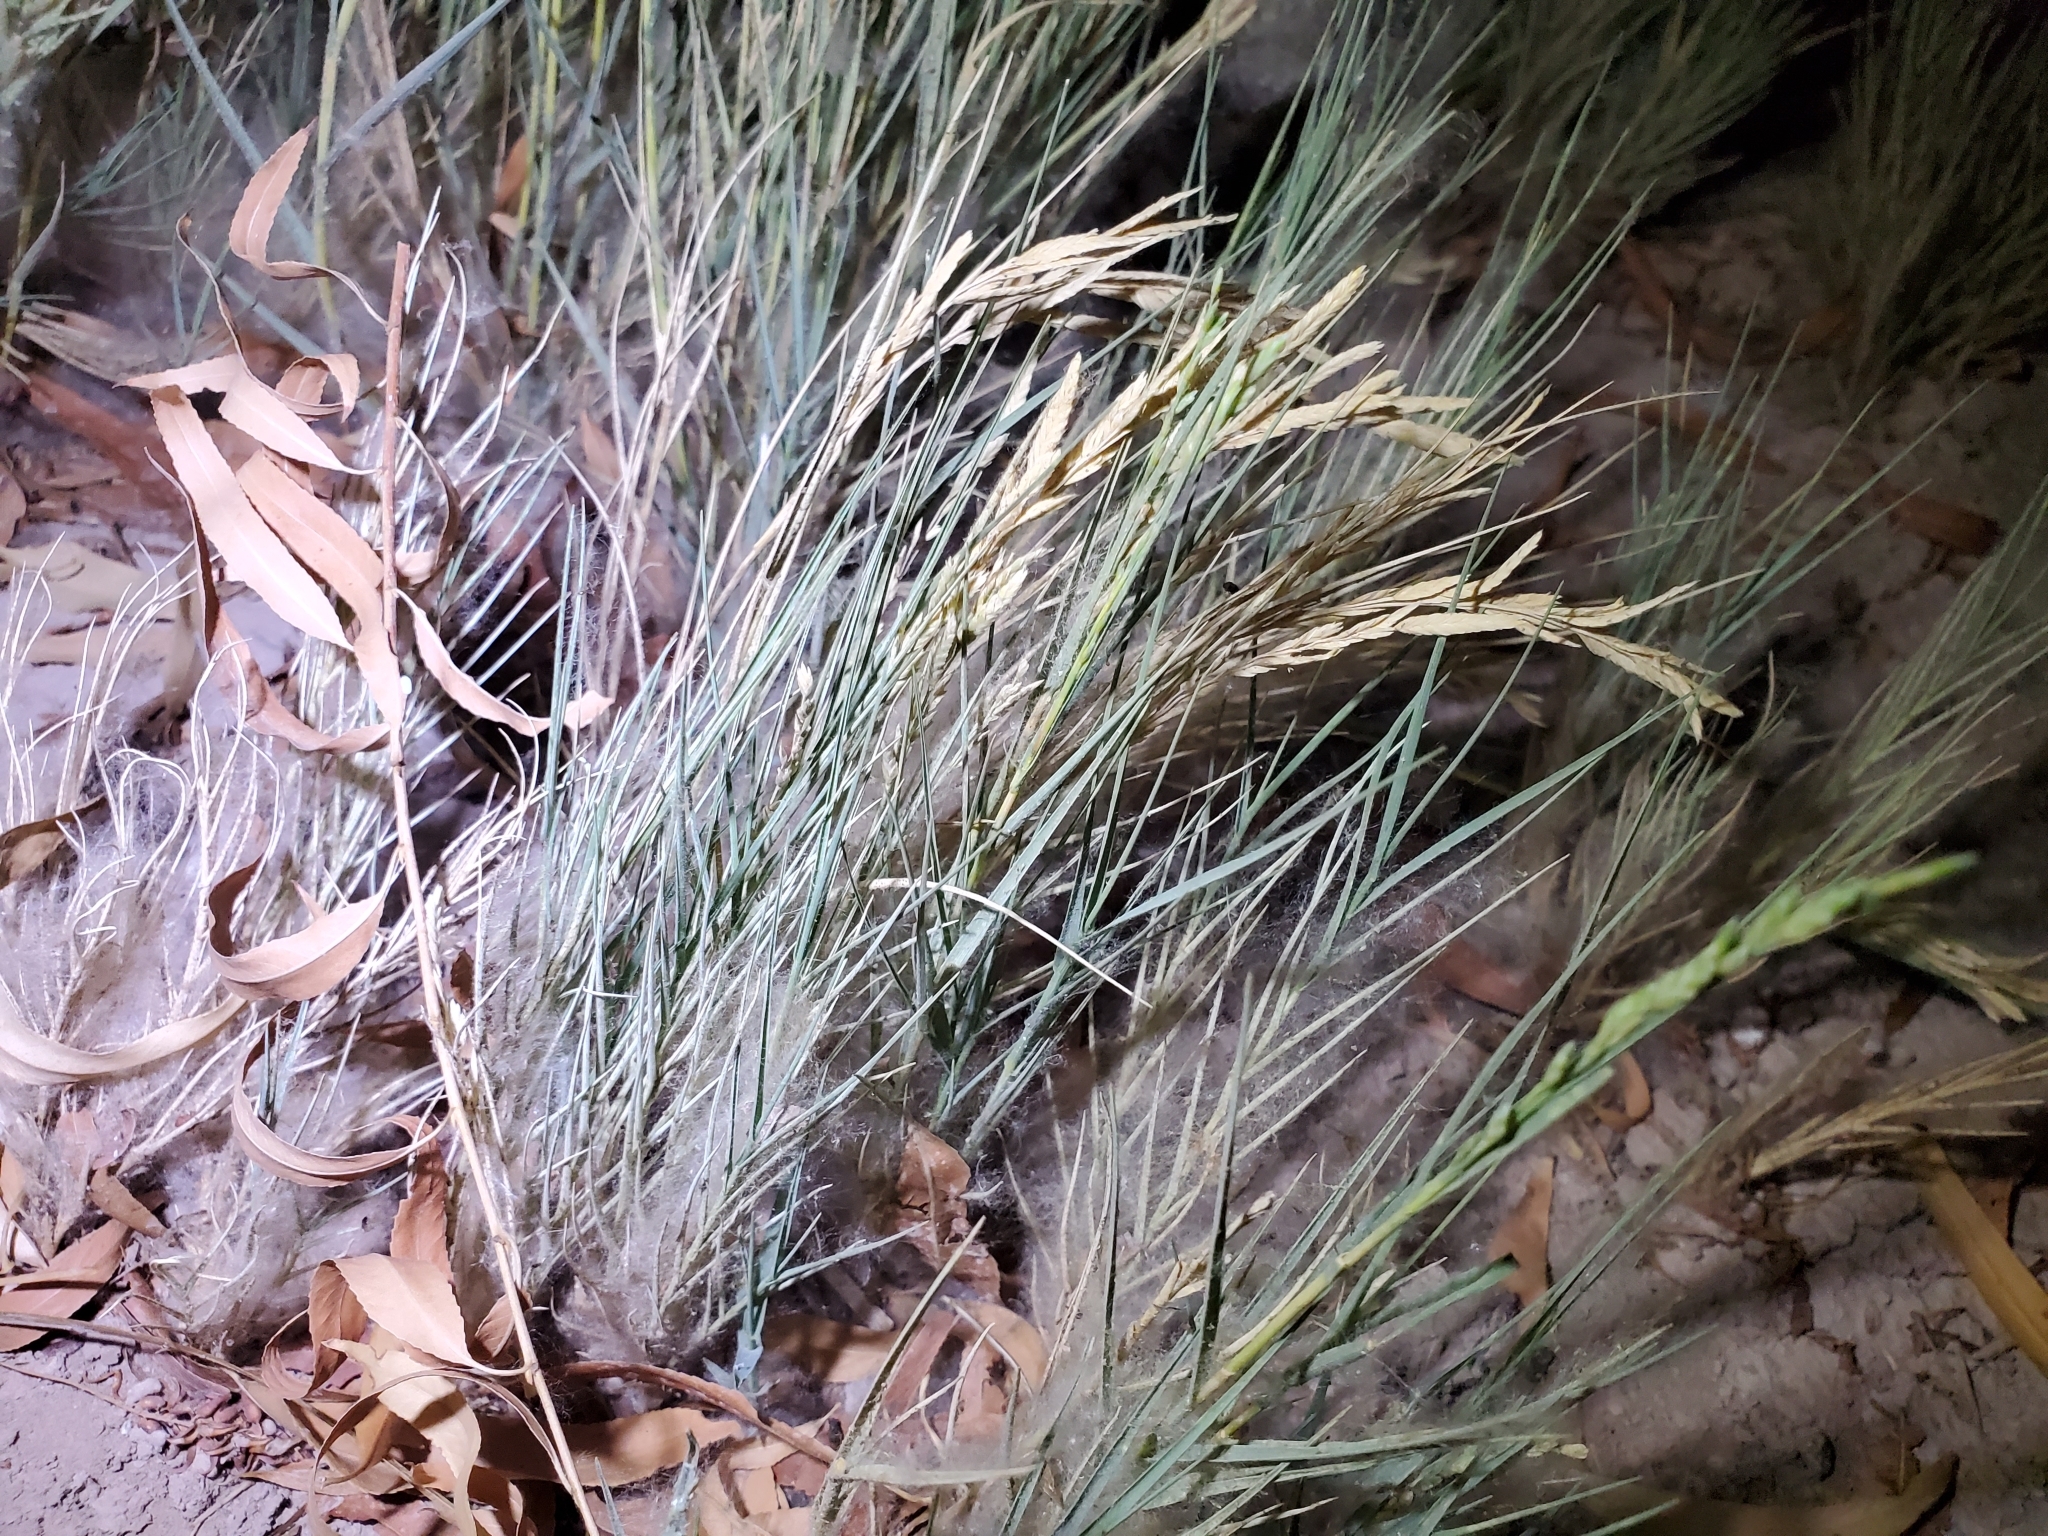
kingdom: Plantae
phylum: Tracheophyta
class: Liliopsida
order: Poales
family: Poaceae
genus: Distichlis
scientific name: Distichlis spicata
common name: Saltgrass
